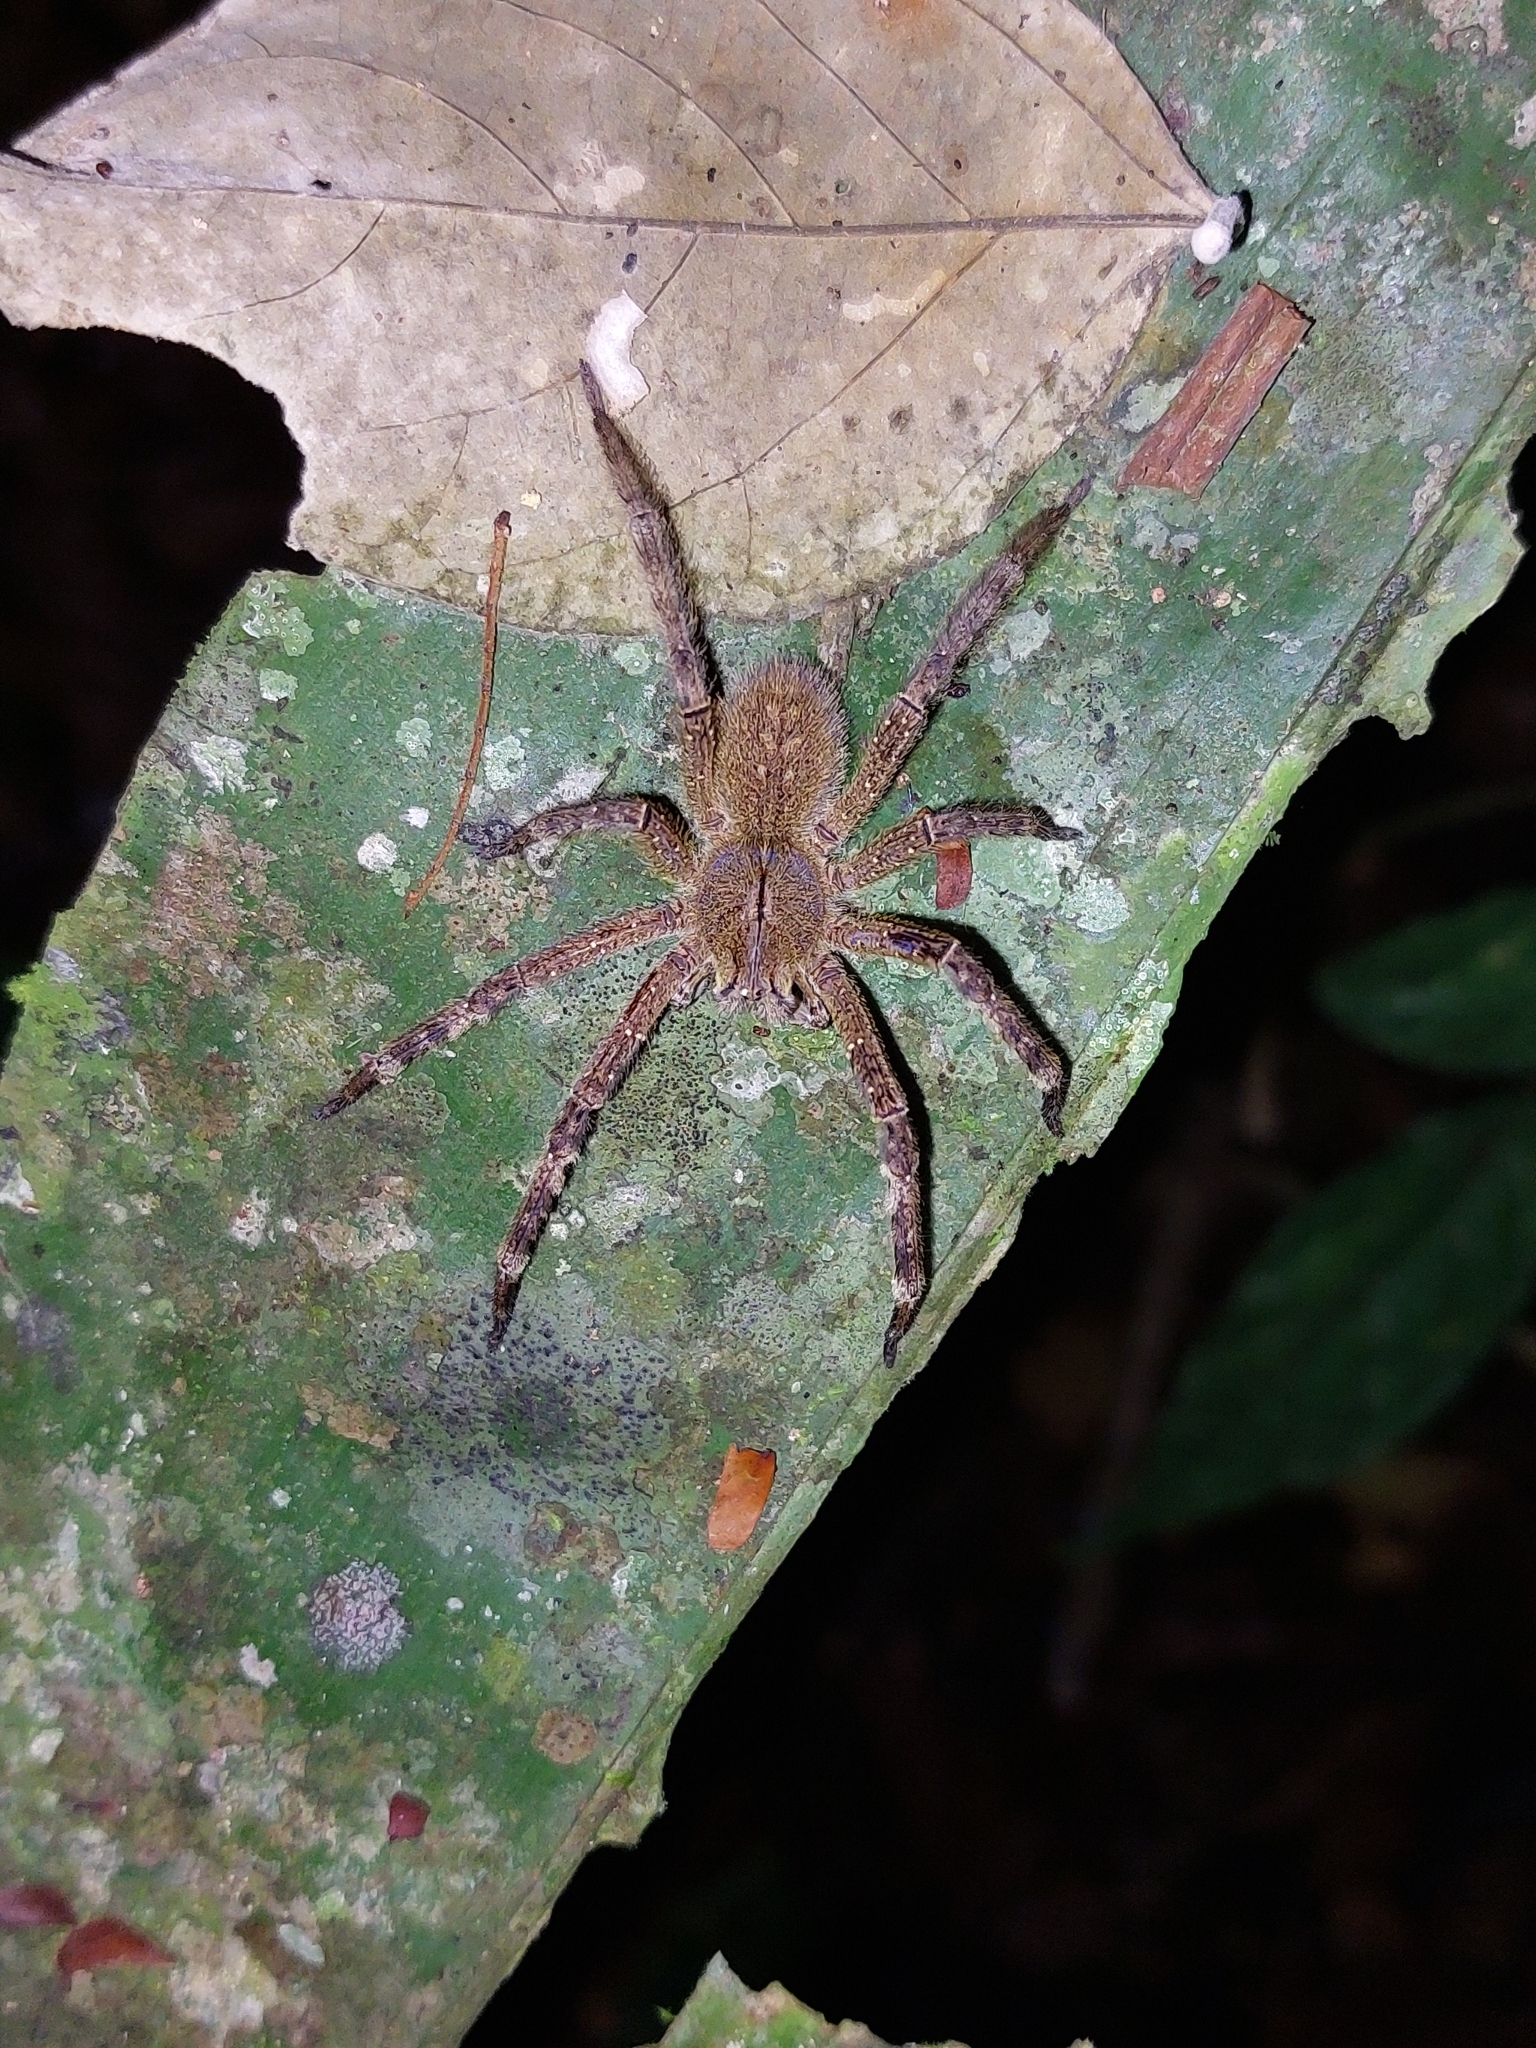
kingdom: Animalia
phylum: Arthropoda
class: Arachnida
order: Araneae
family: Ctenidae
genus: Phoneutria
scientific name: Phoneutria fera
